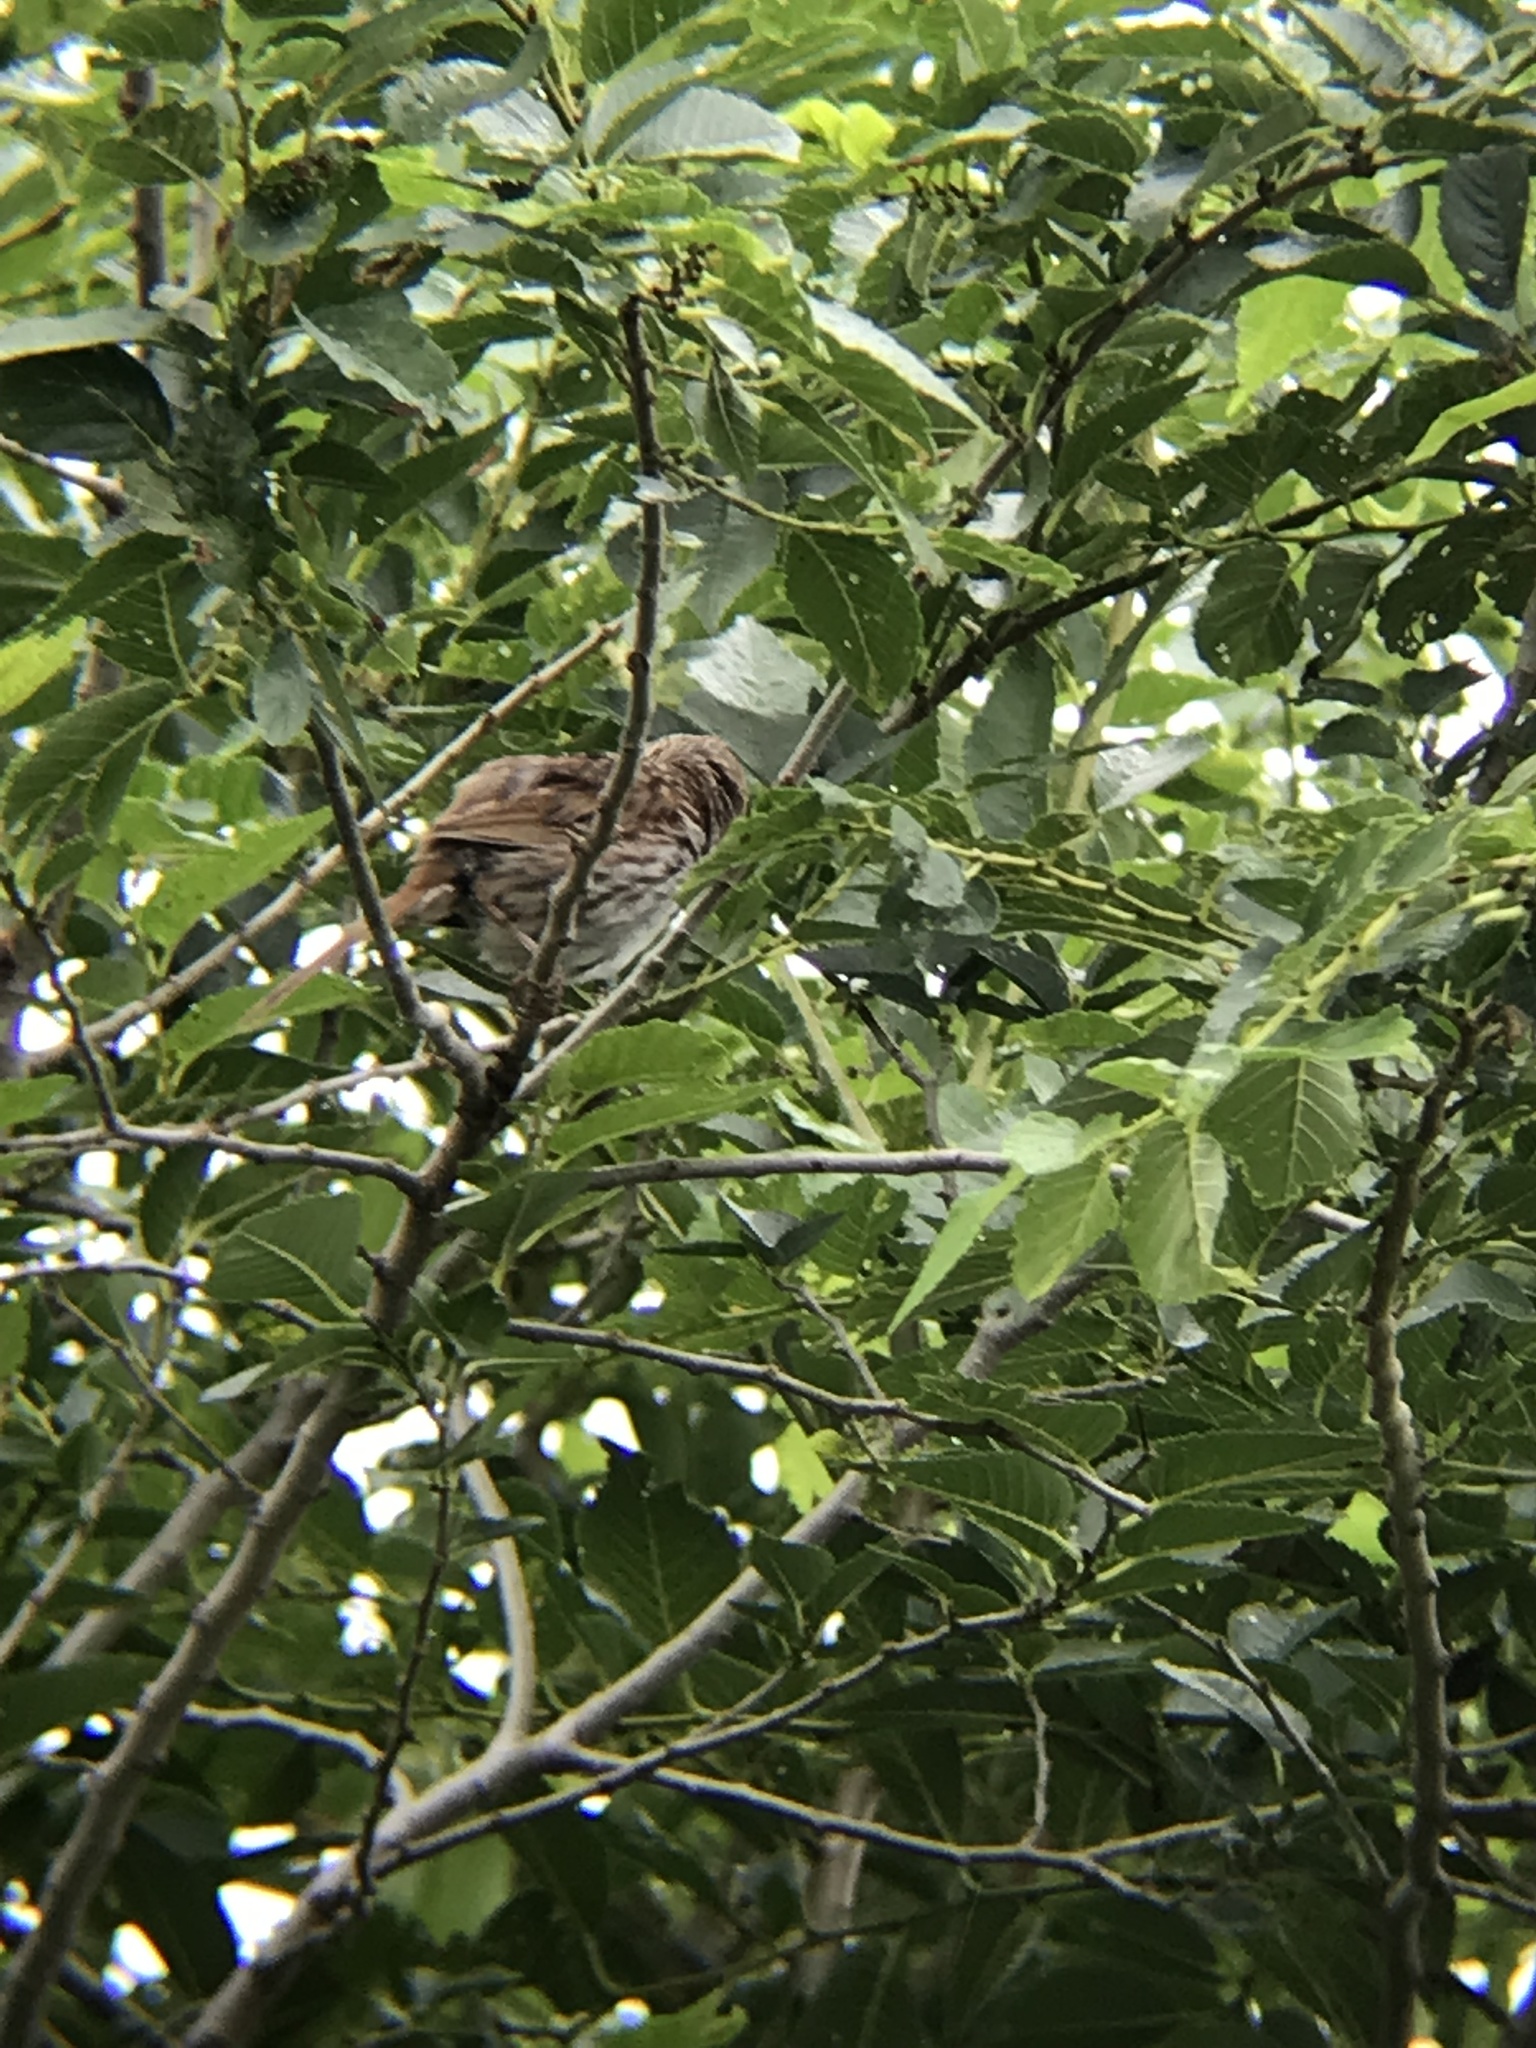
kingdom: Animalia
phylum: Chordata
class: Aves
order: Passeriformes
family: Passerellidae
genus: Melospiza
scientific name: Melospiza melodia
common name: Song sparrow
